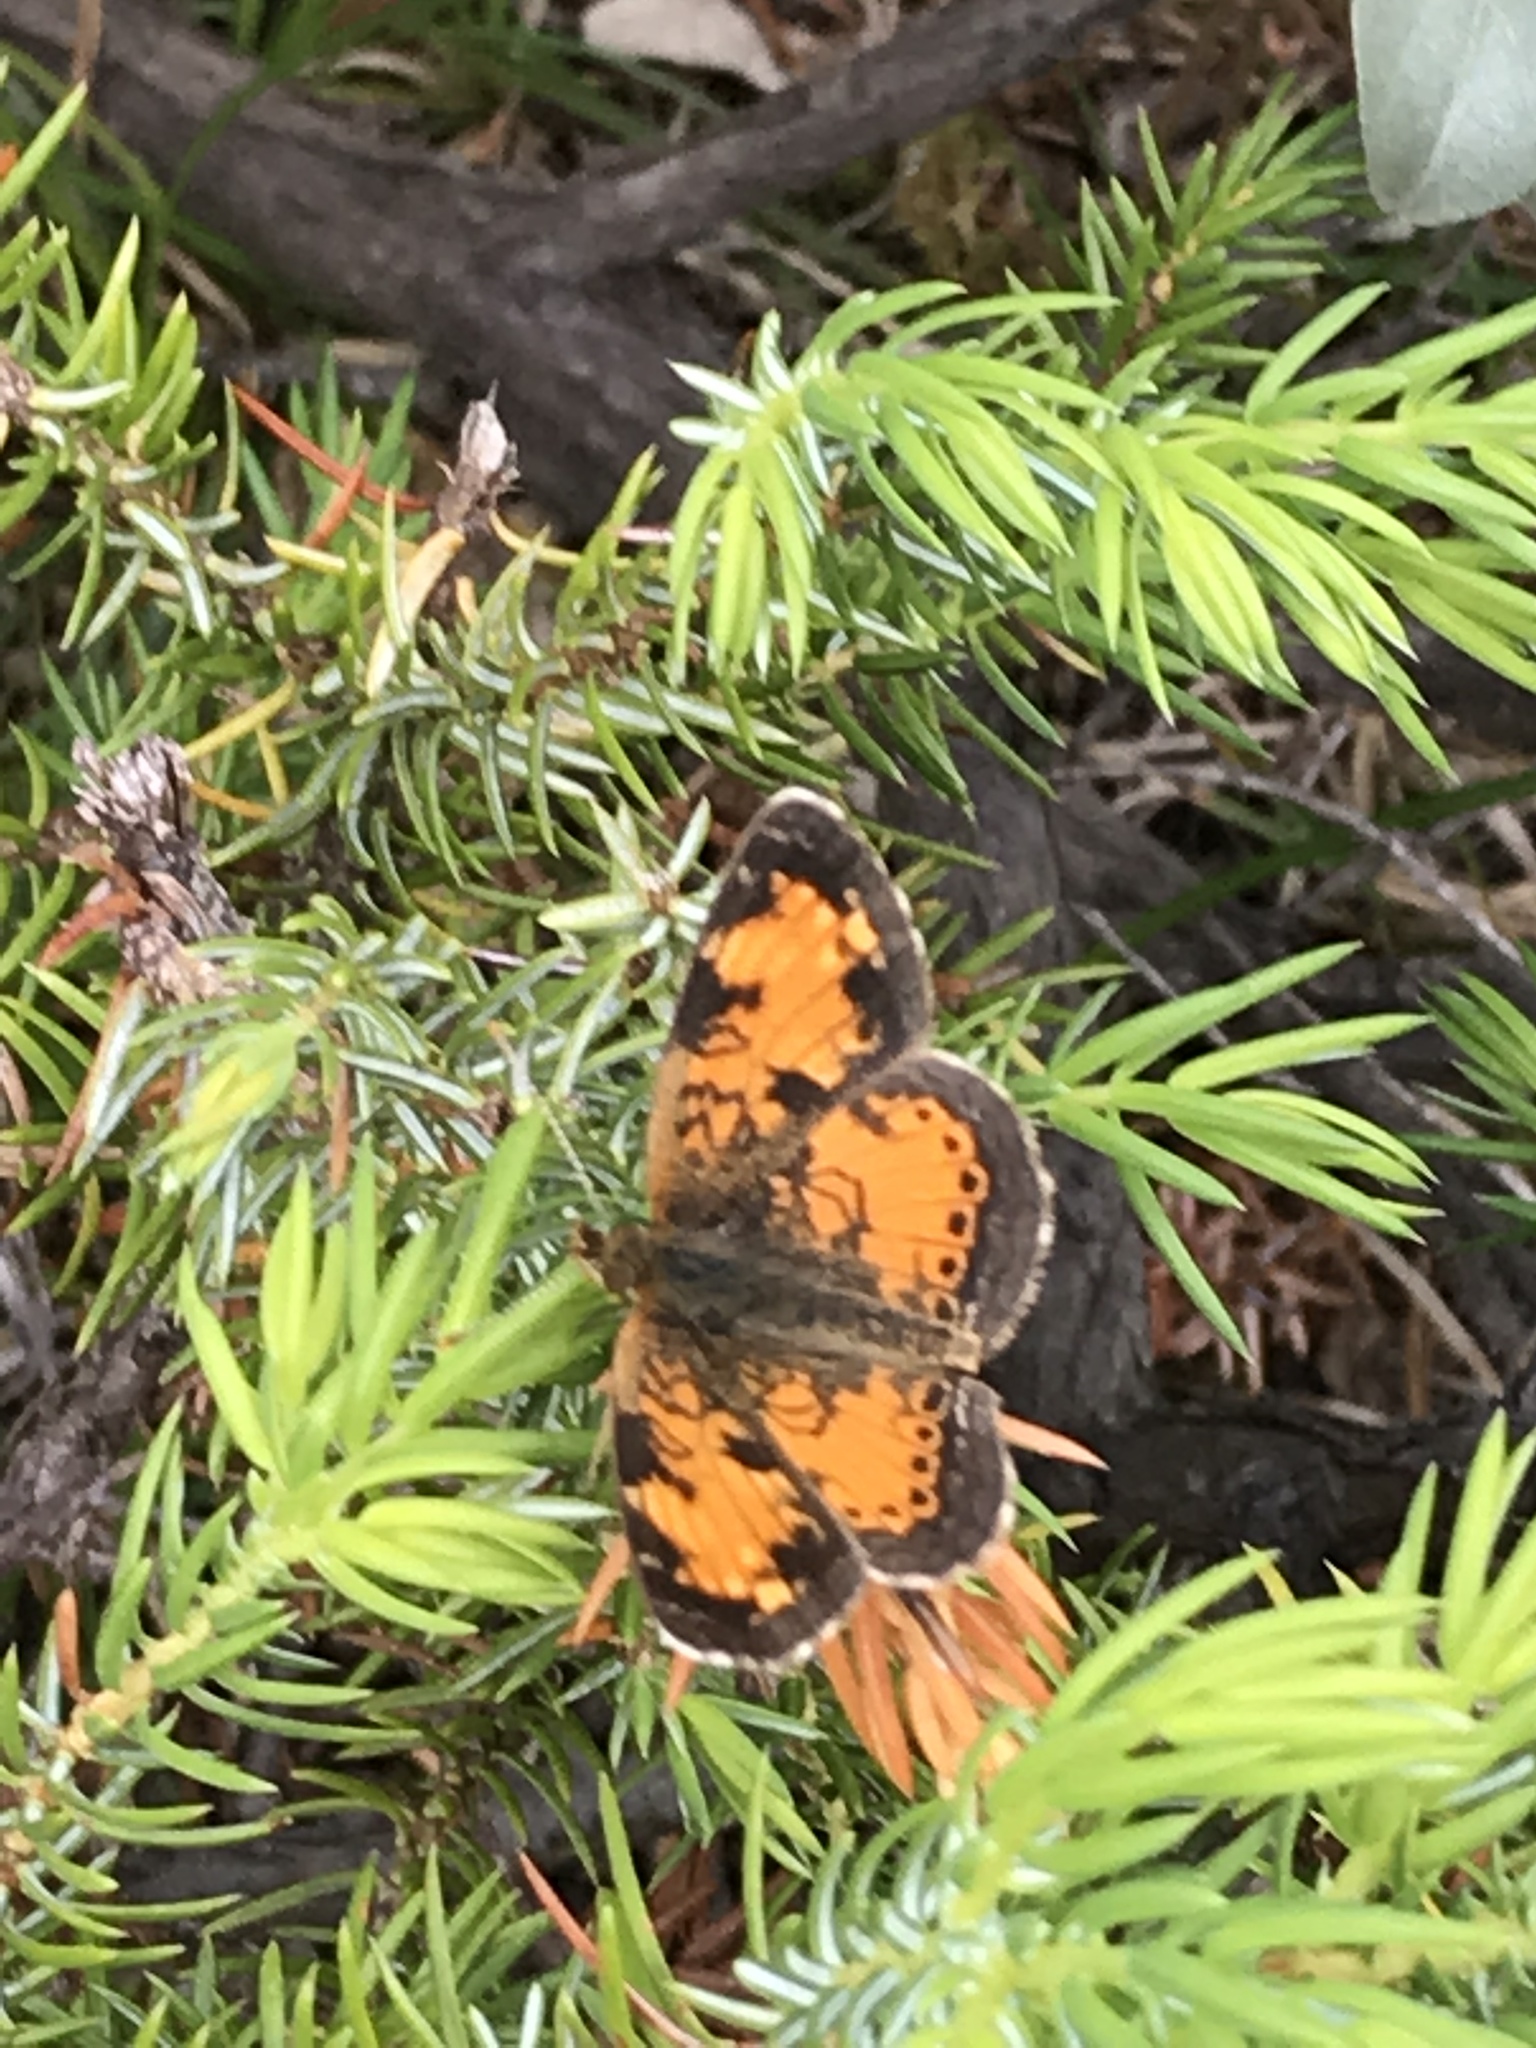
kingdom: Animalia
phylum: Arthropoda
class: Insecta
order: Lepidoptera
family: Nymphalidae
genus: Phyciodes
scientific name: Phyciodes tharos
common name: Pearl crescent
